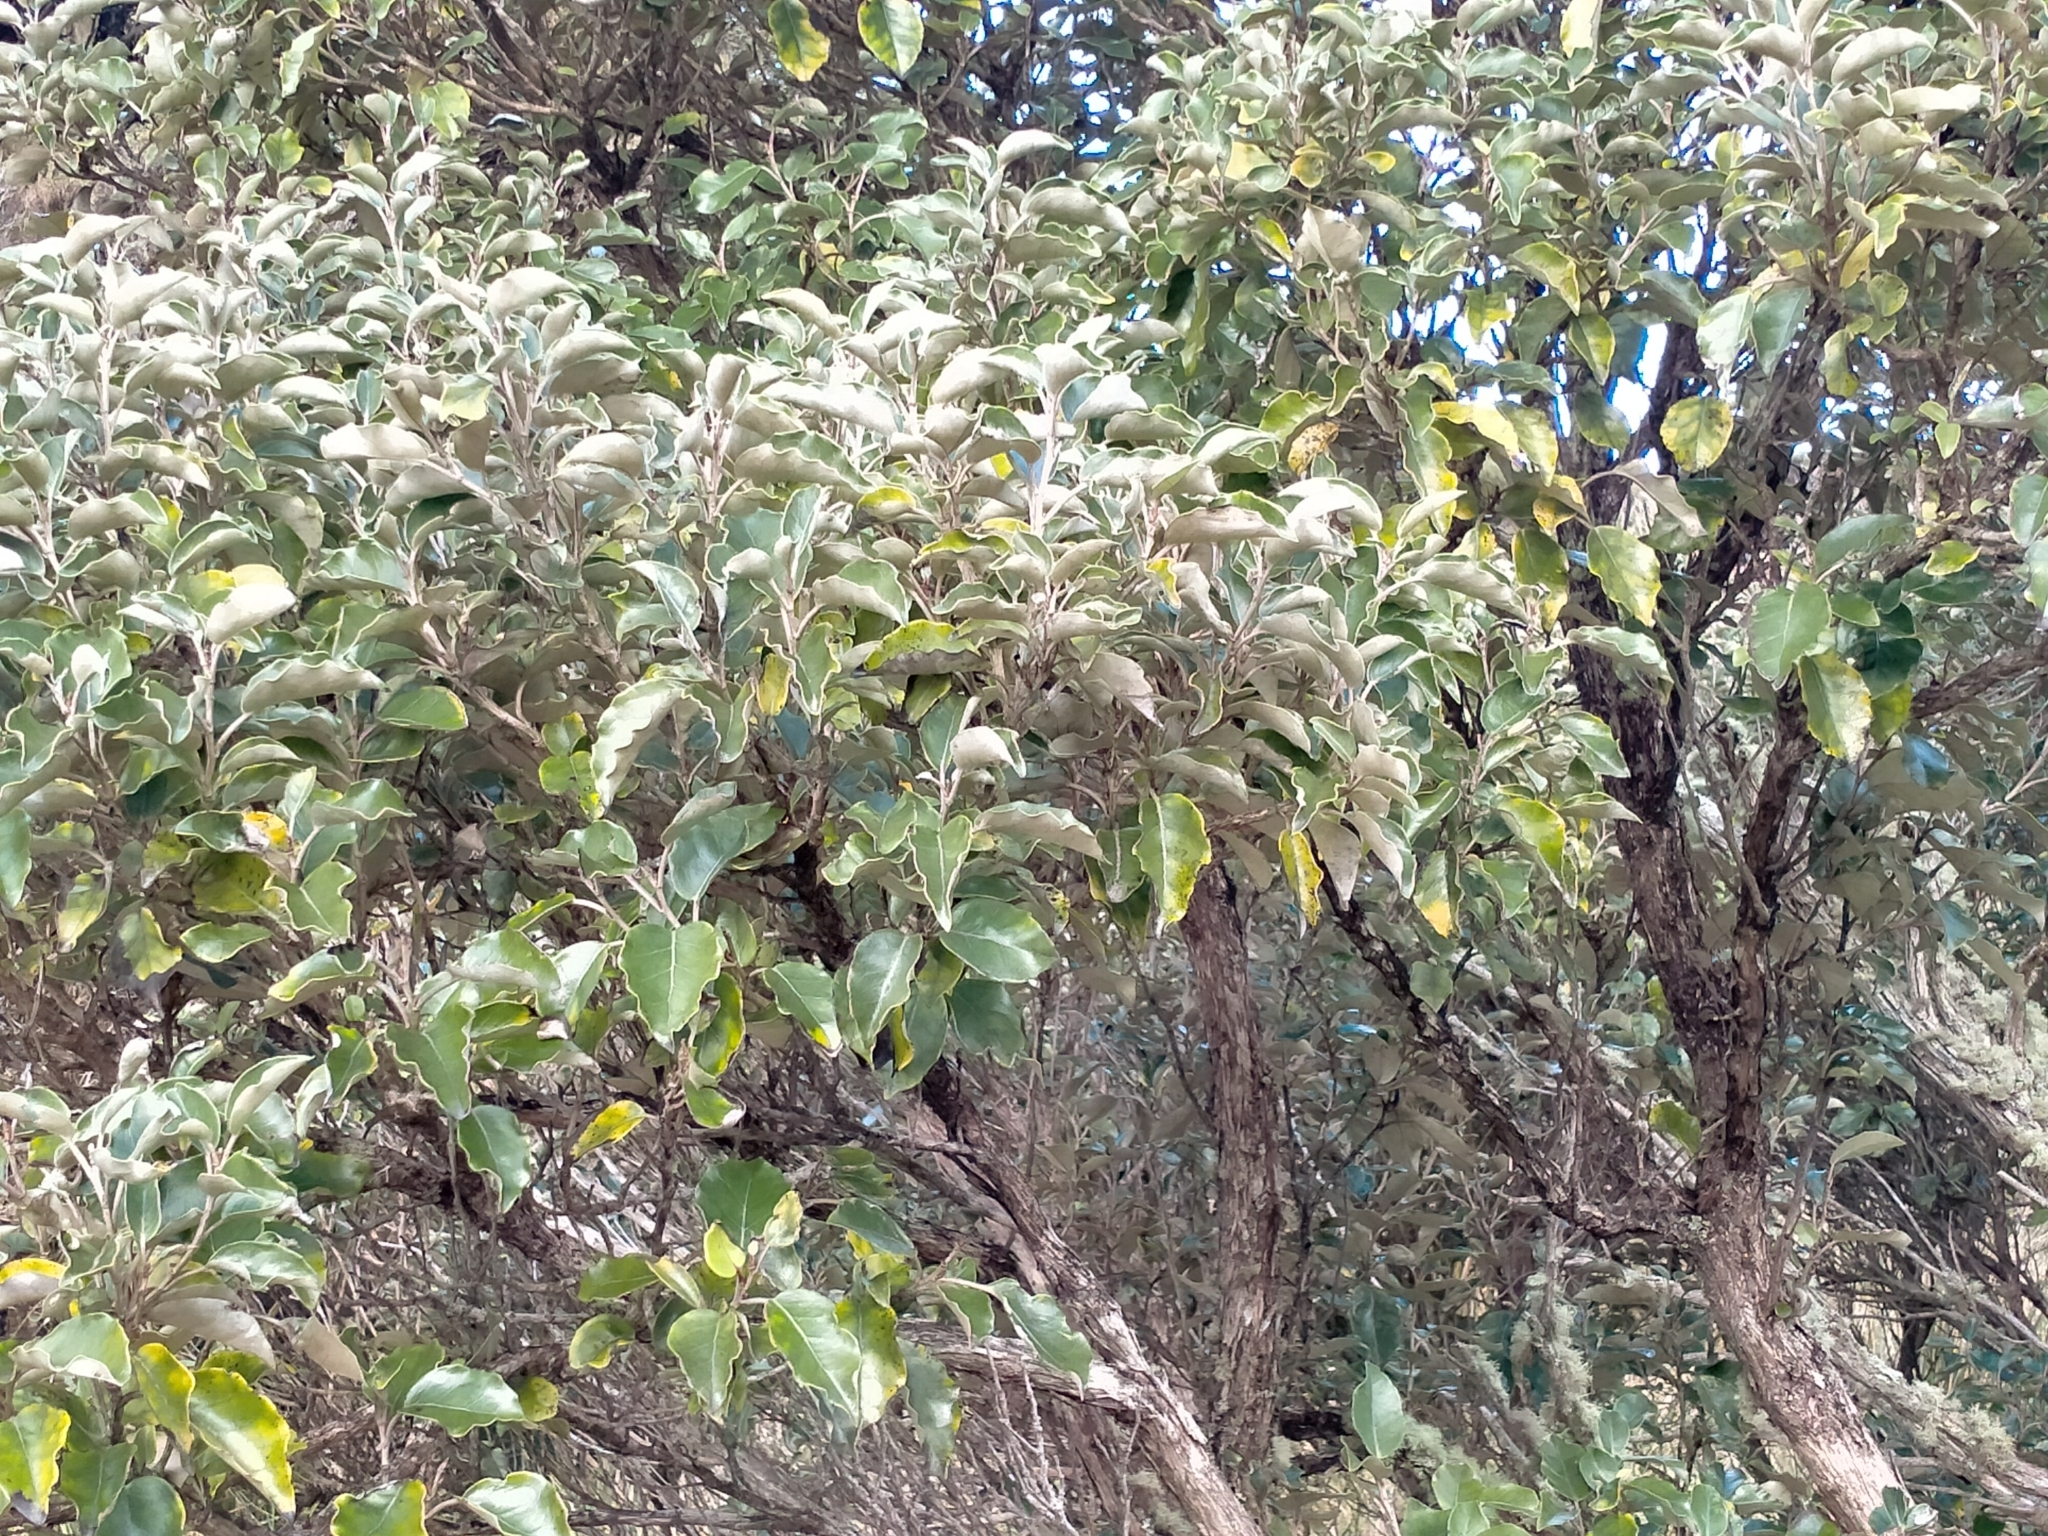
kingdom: Plantae
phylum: Tracheophyta
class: Magnoliopsida
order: Asterales
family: Asteraceae
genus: Olearia
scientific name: Olearia arborescens
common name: Glossy tree daisy
